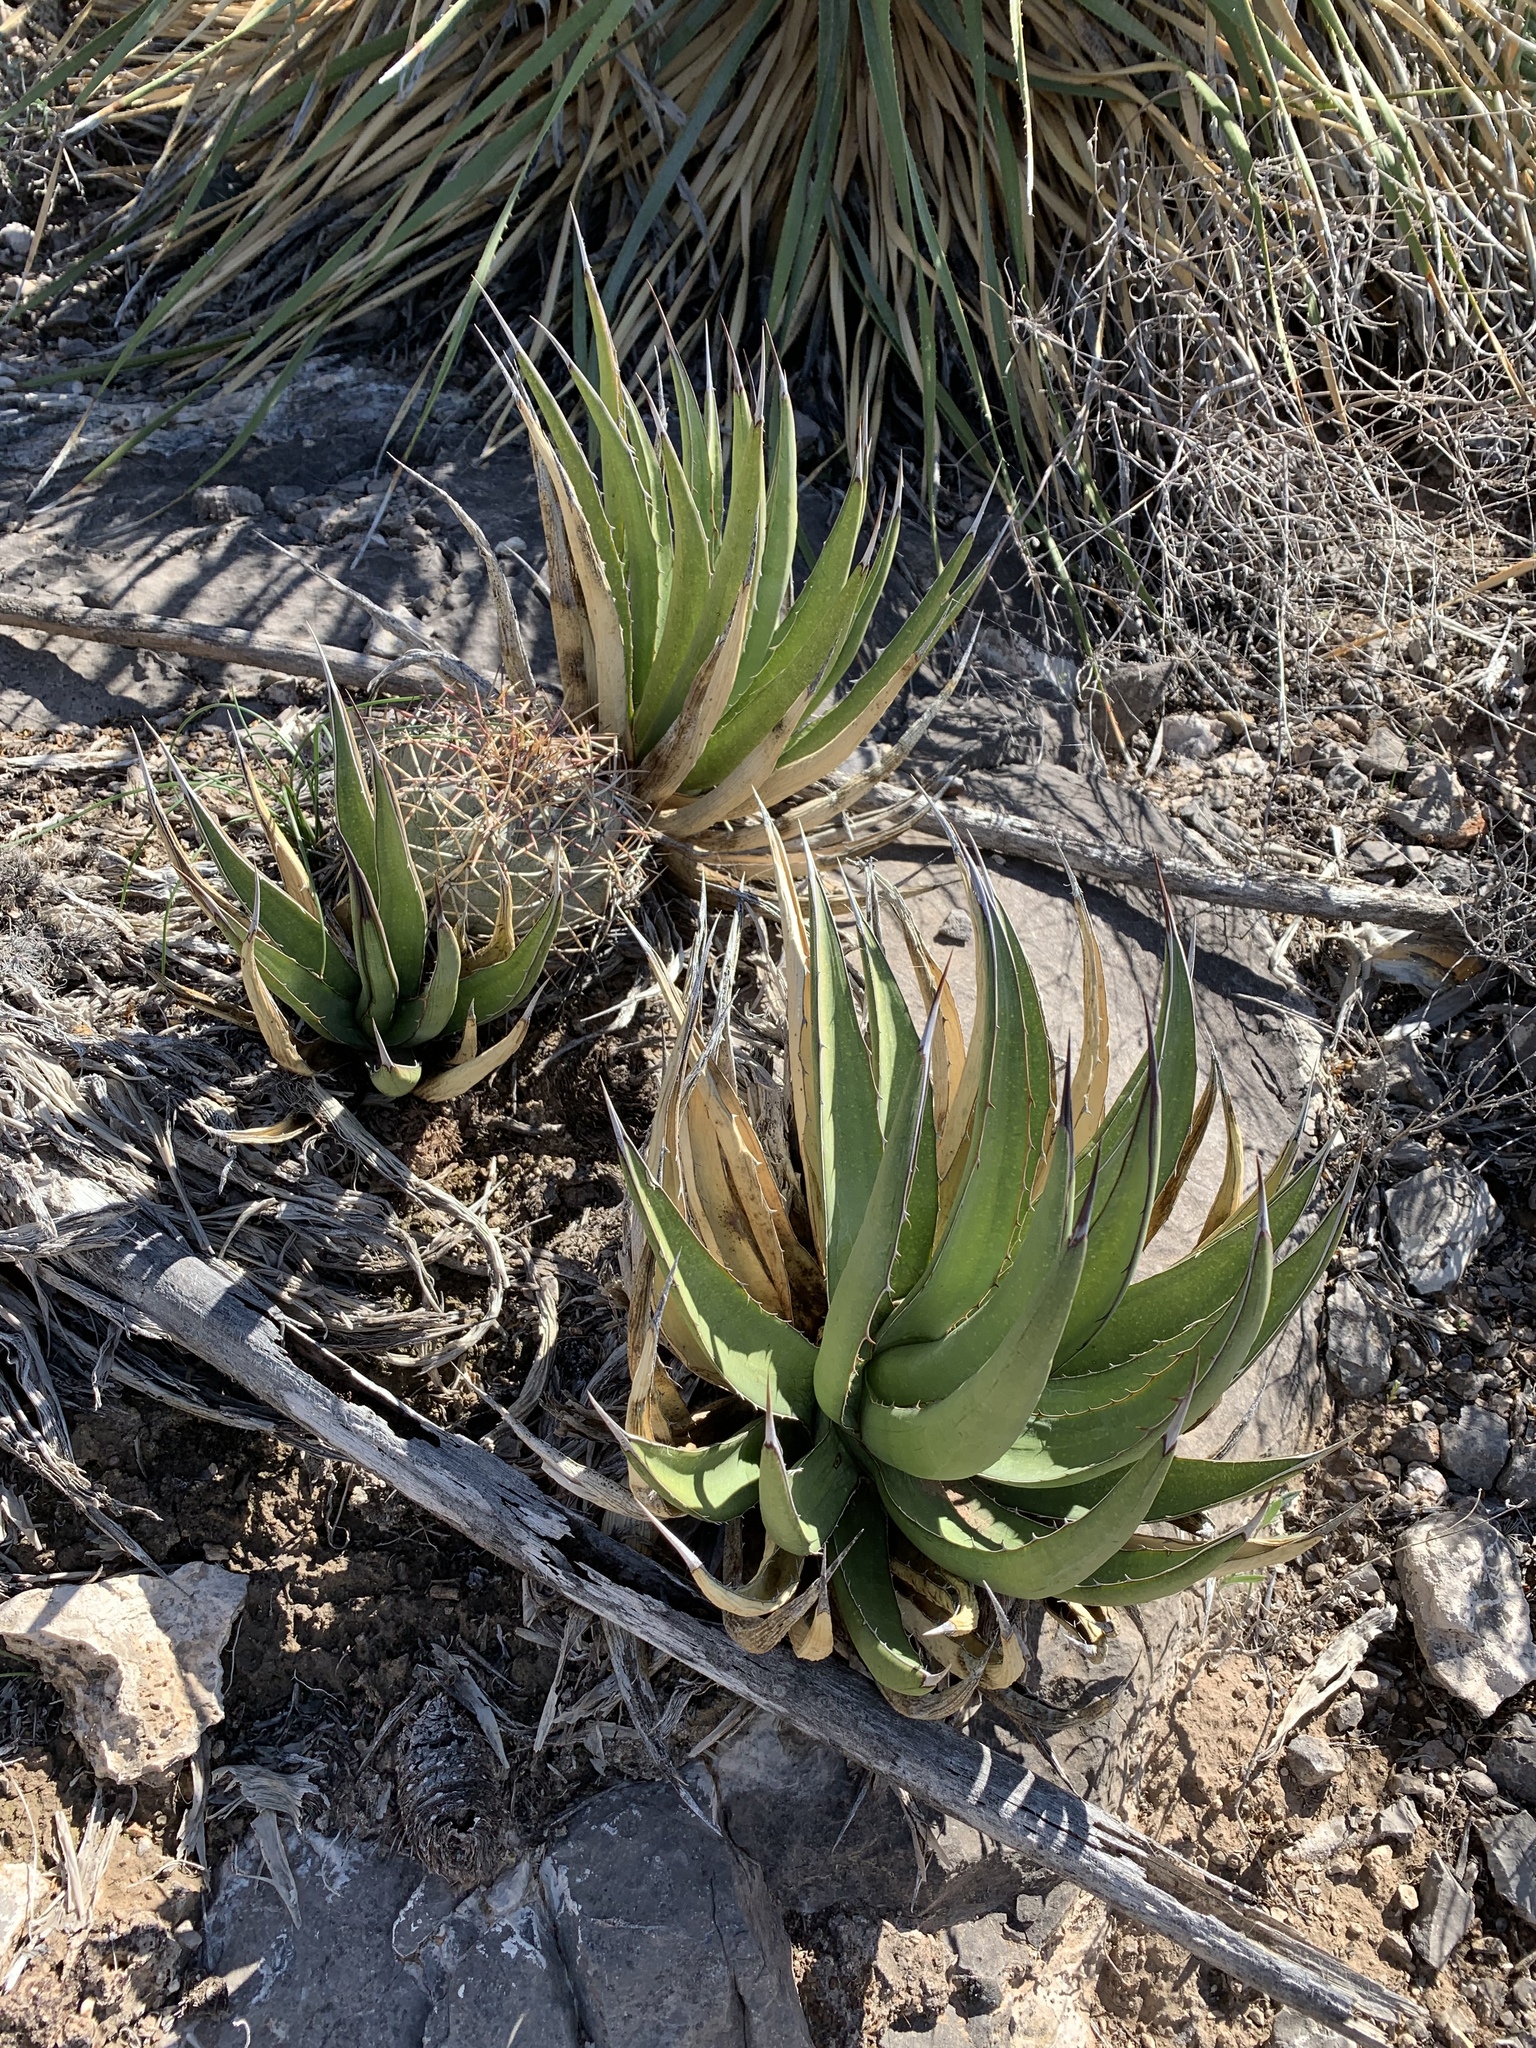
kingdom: Plantae
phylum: Tracheophyta
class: Liliopsida
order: Asparagales
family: Asparagaceae
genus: Agave
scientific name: Agave lechuguilla
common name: Lecheguilla agave
